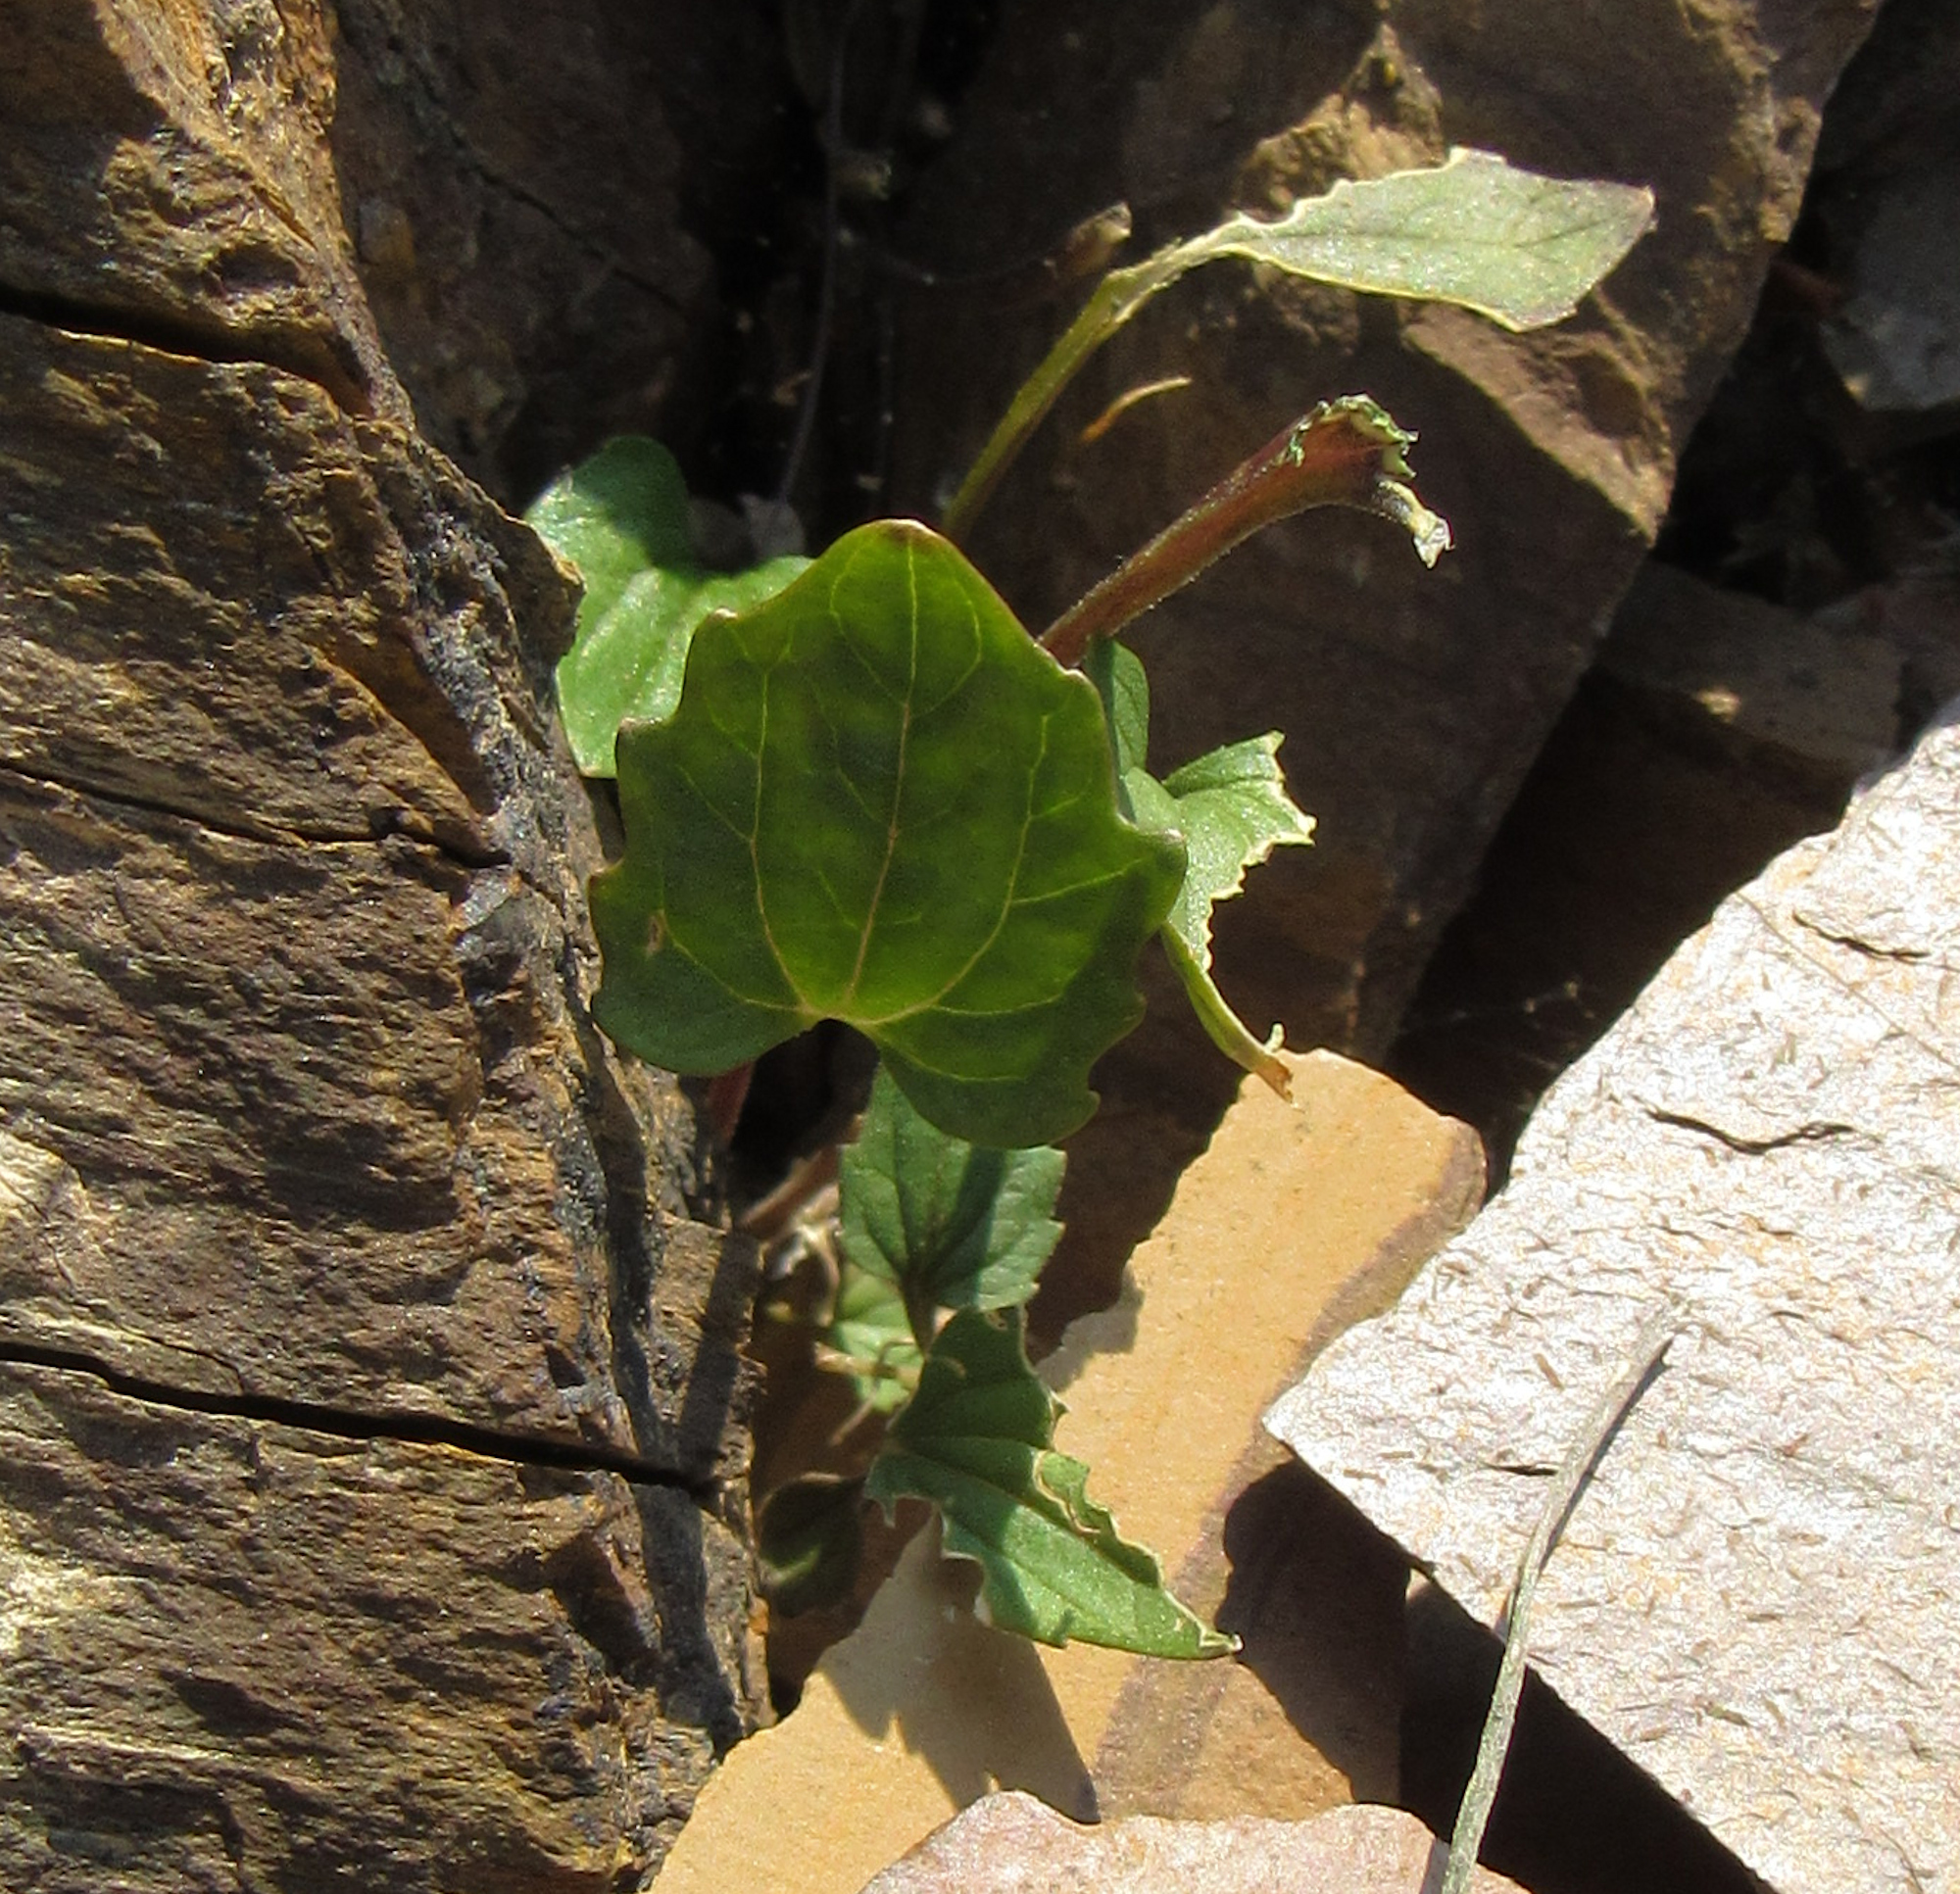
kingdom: Plantae
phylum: Tracheophyta
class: Magnoliopsida
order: Malpighiales
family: Violaceae
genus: Viola
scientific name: Viola purpurea
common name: Pine violet
